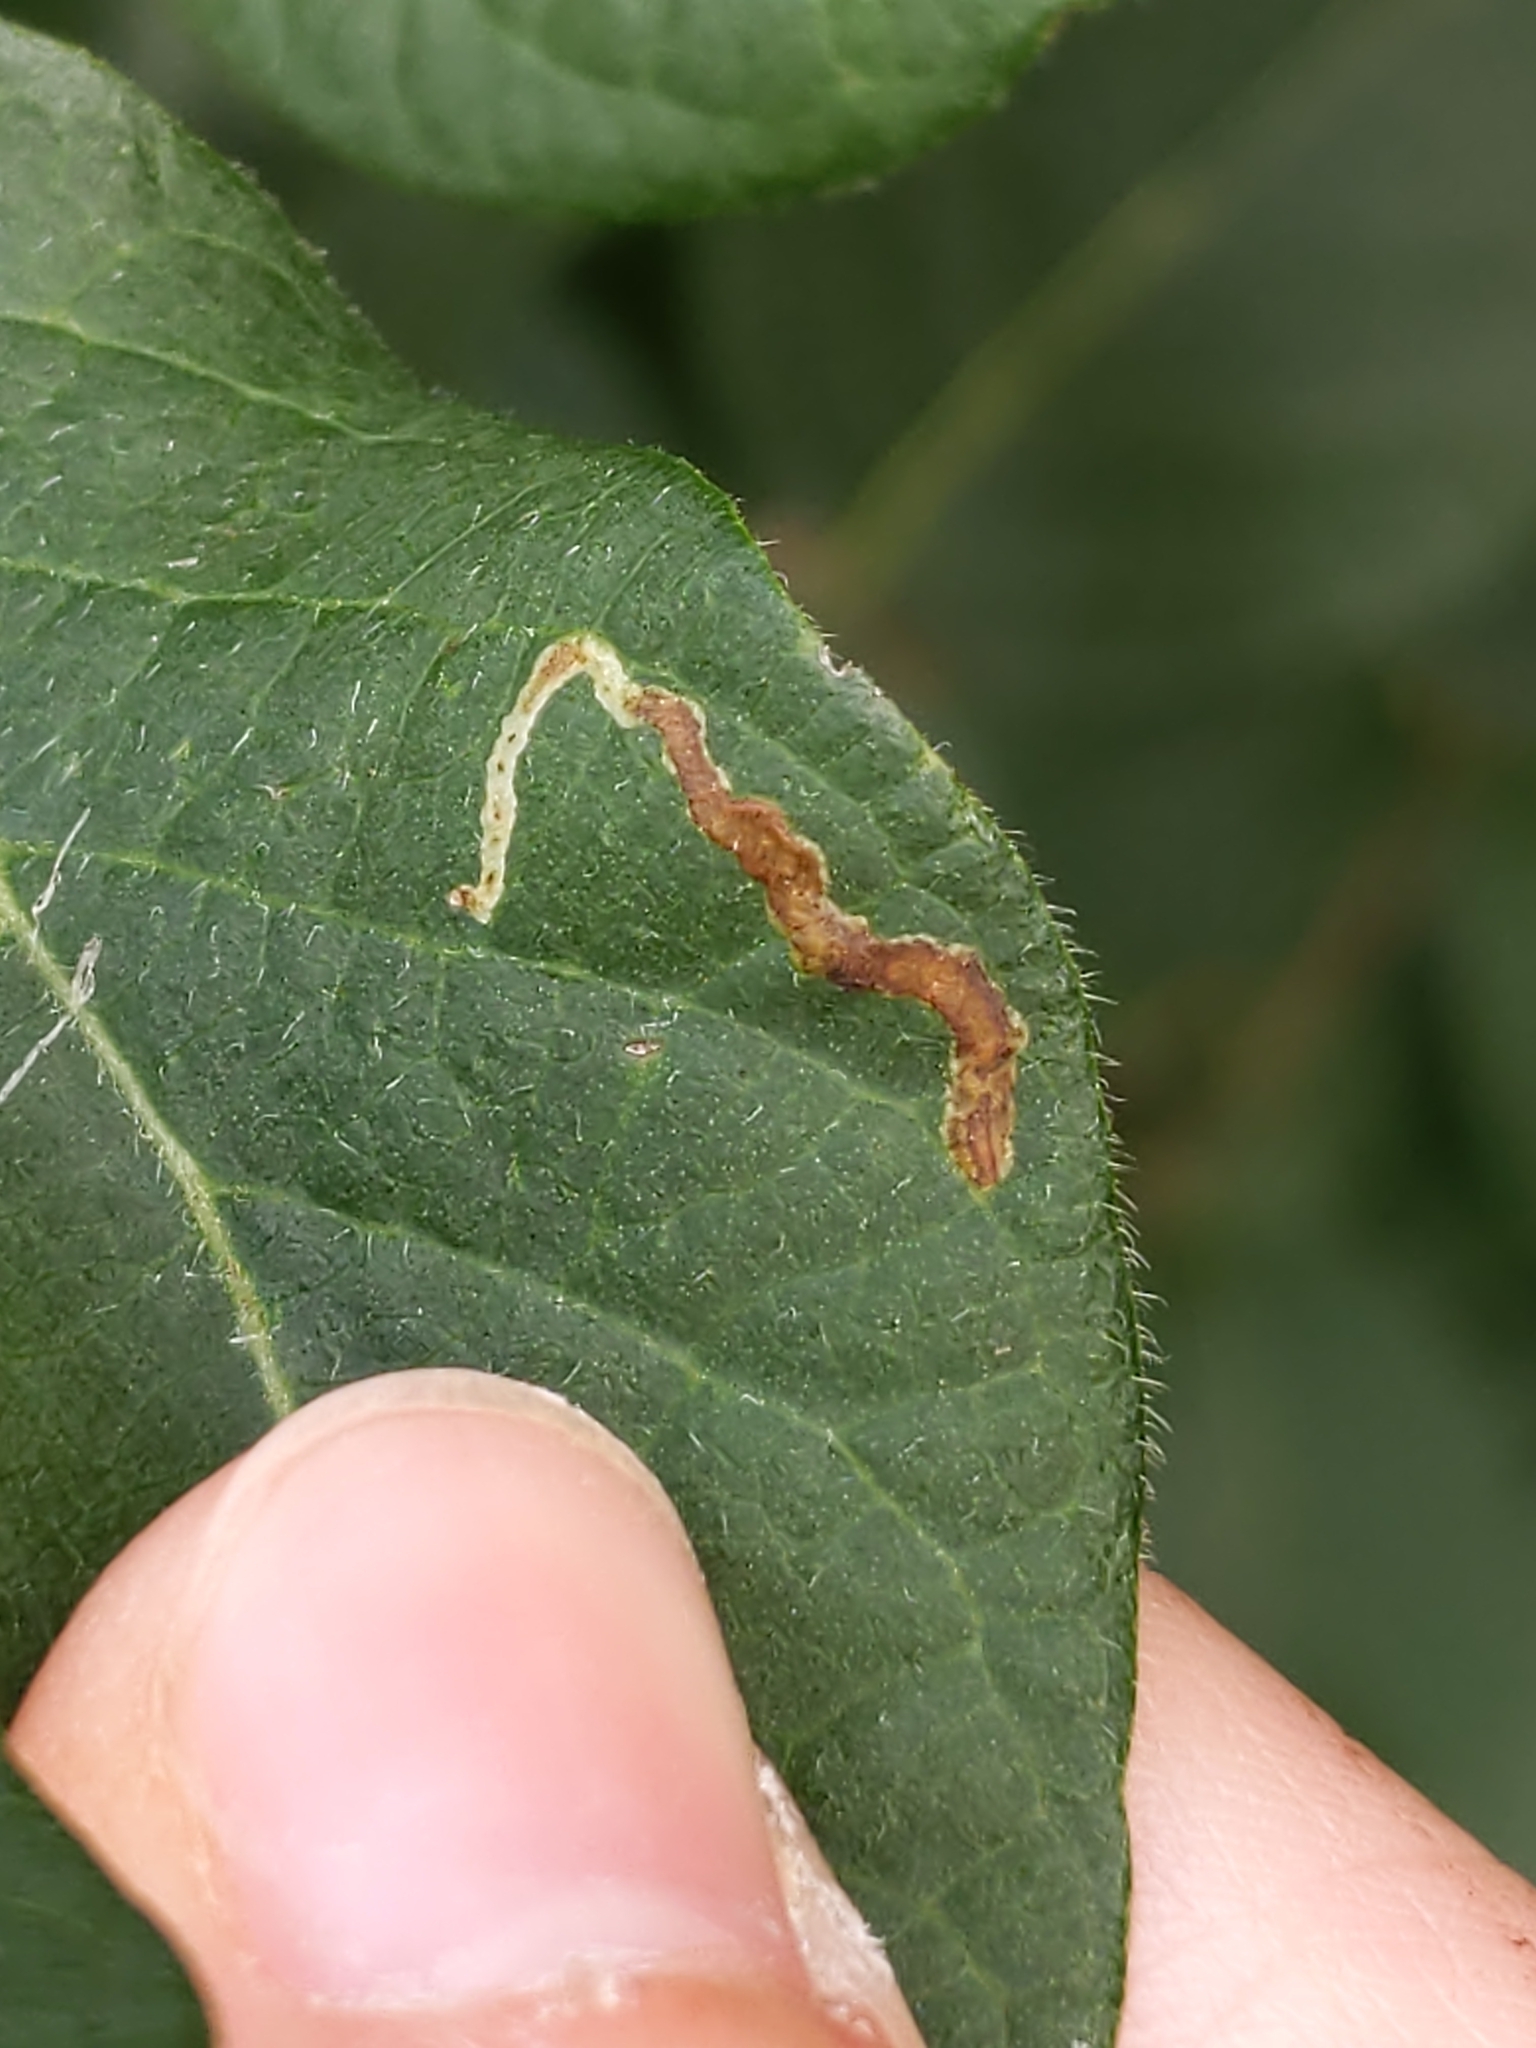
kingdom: Animalia
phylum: Arthropoda
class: Insecta
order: Diptera
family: Agromyzidae
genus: Aulagromyza
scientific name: Aulagromyza
